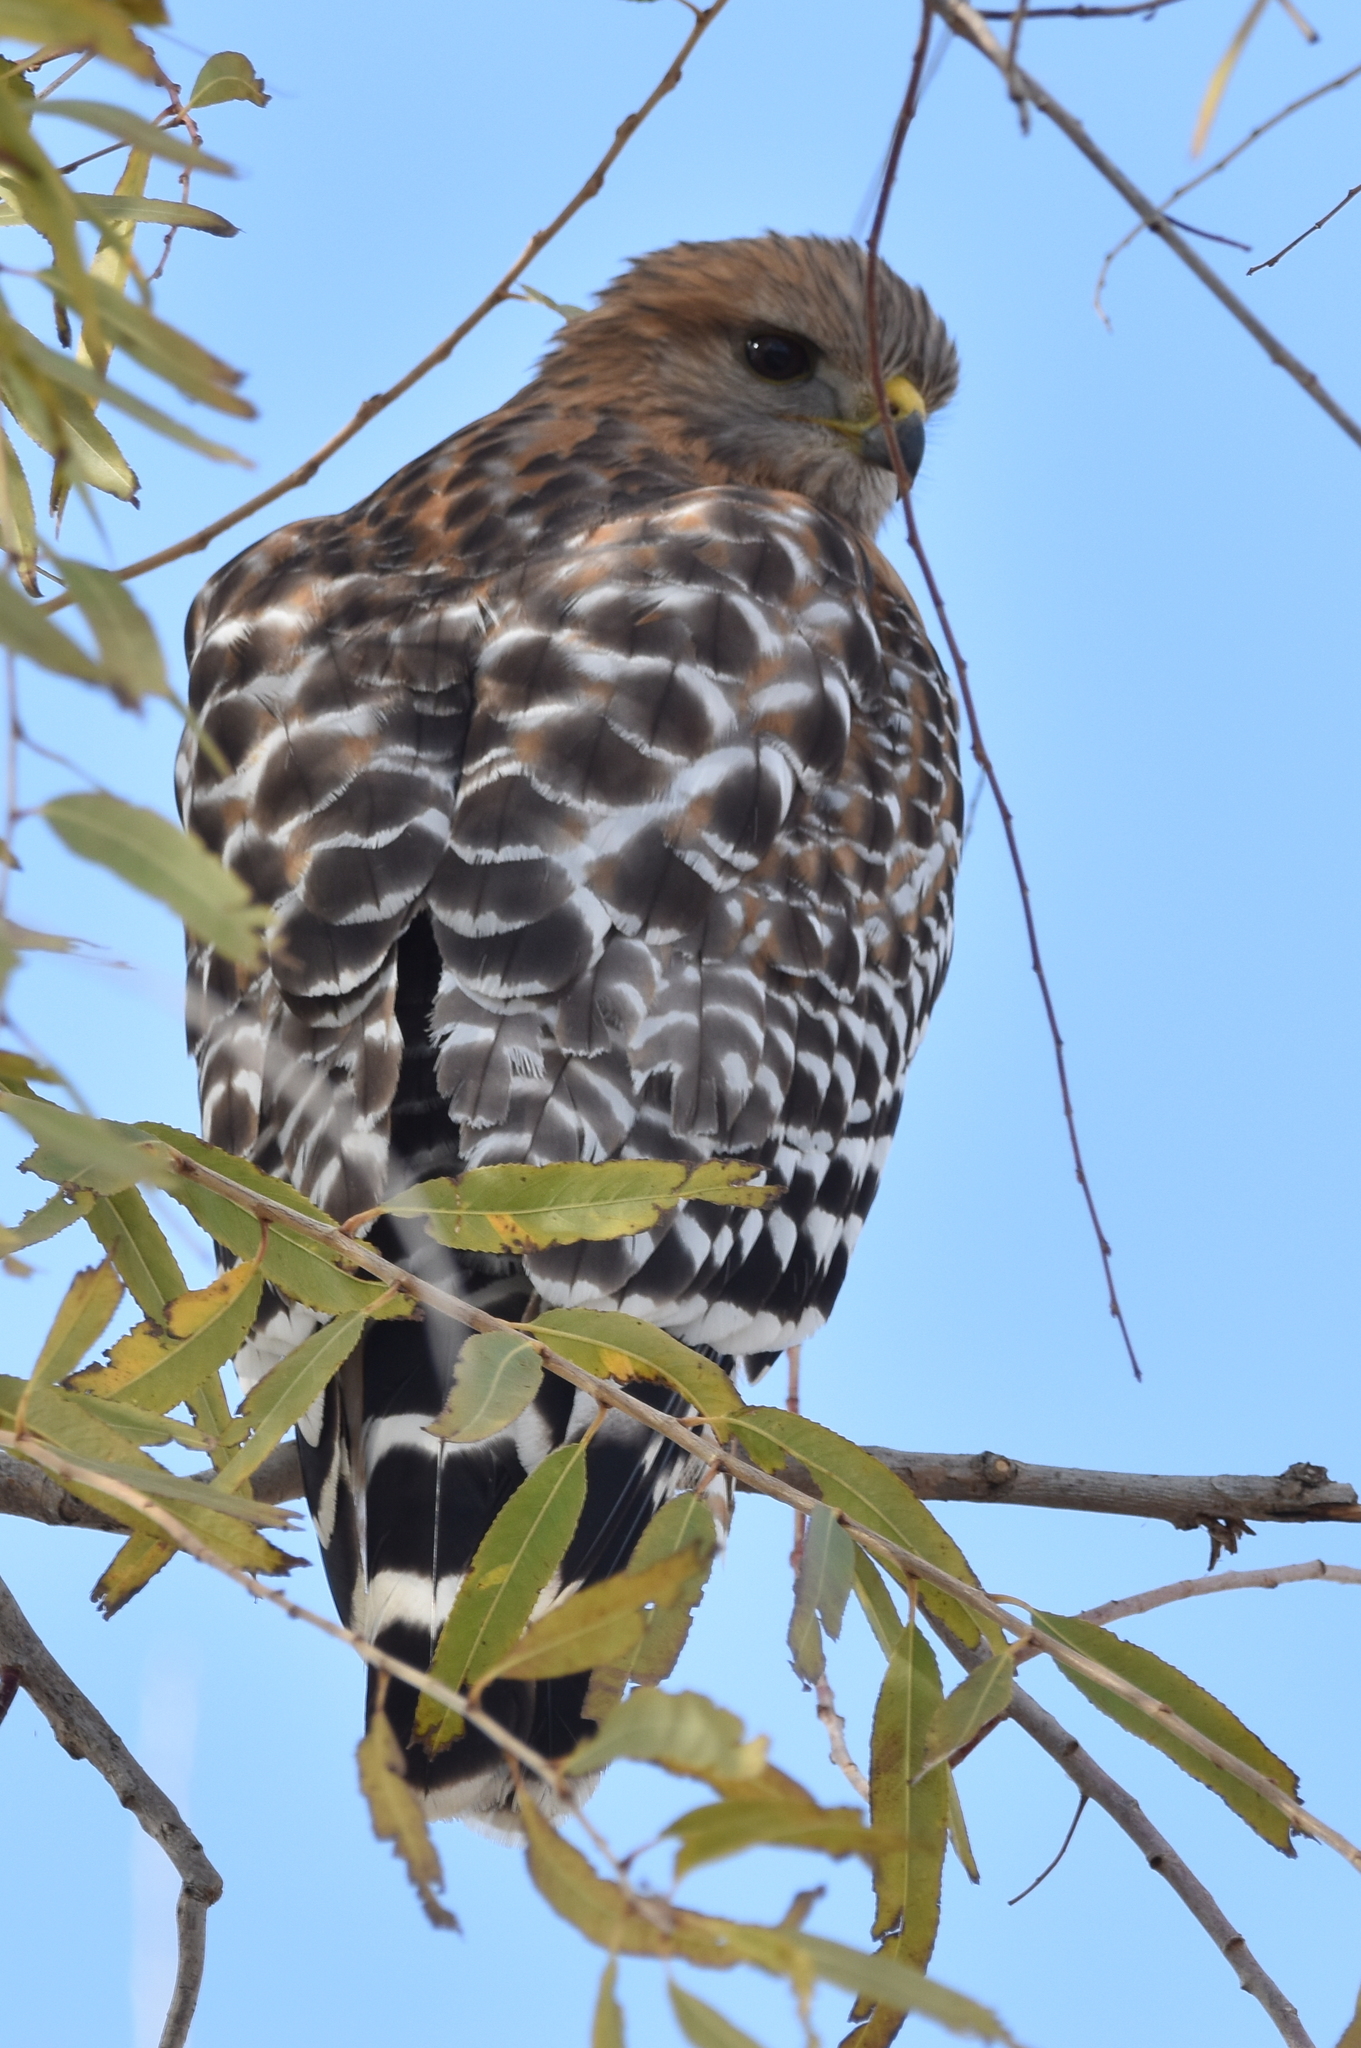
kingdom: Animalia
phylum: Chordata
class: Aves
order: Accipitriformes
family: Accipitridae
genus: Buteo
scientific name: Buteo lineatus
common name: Red-shouldered hawk
